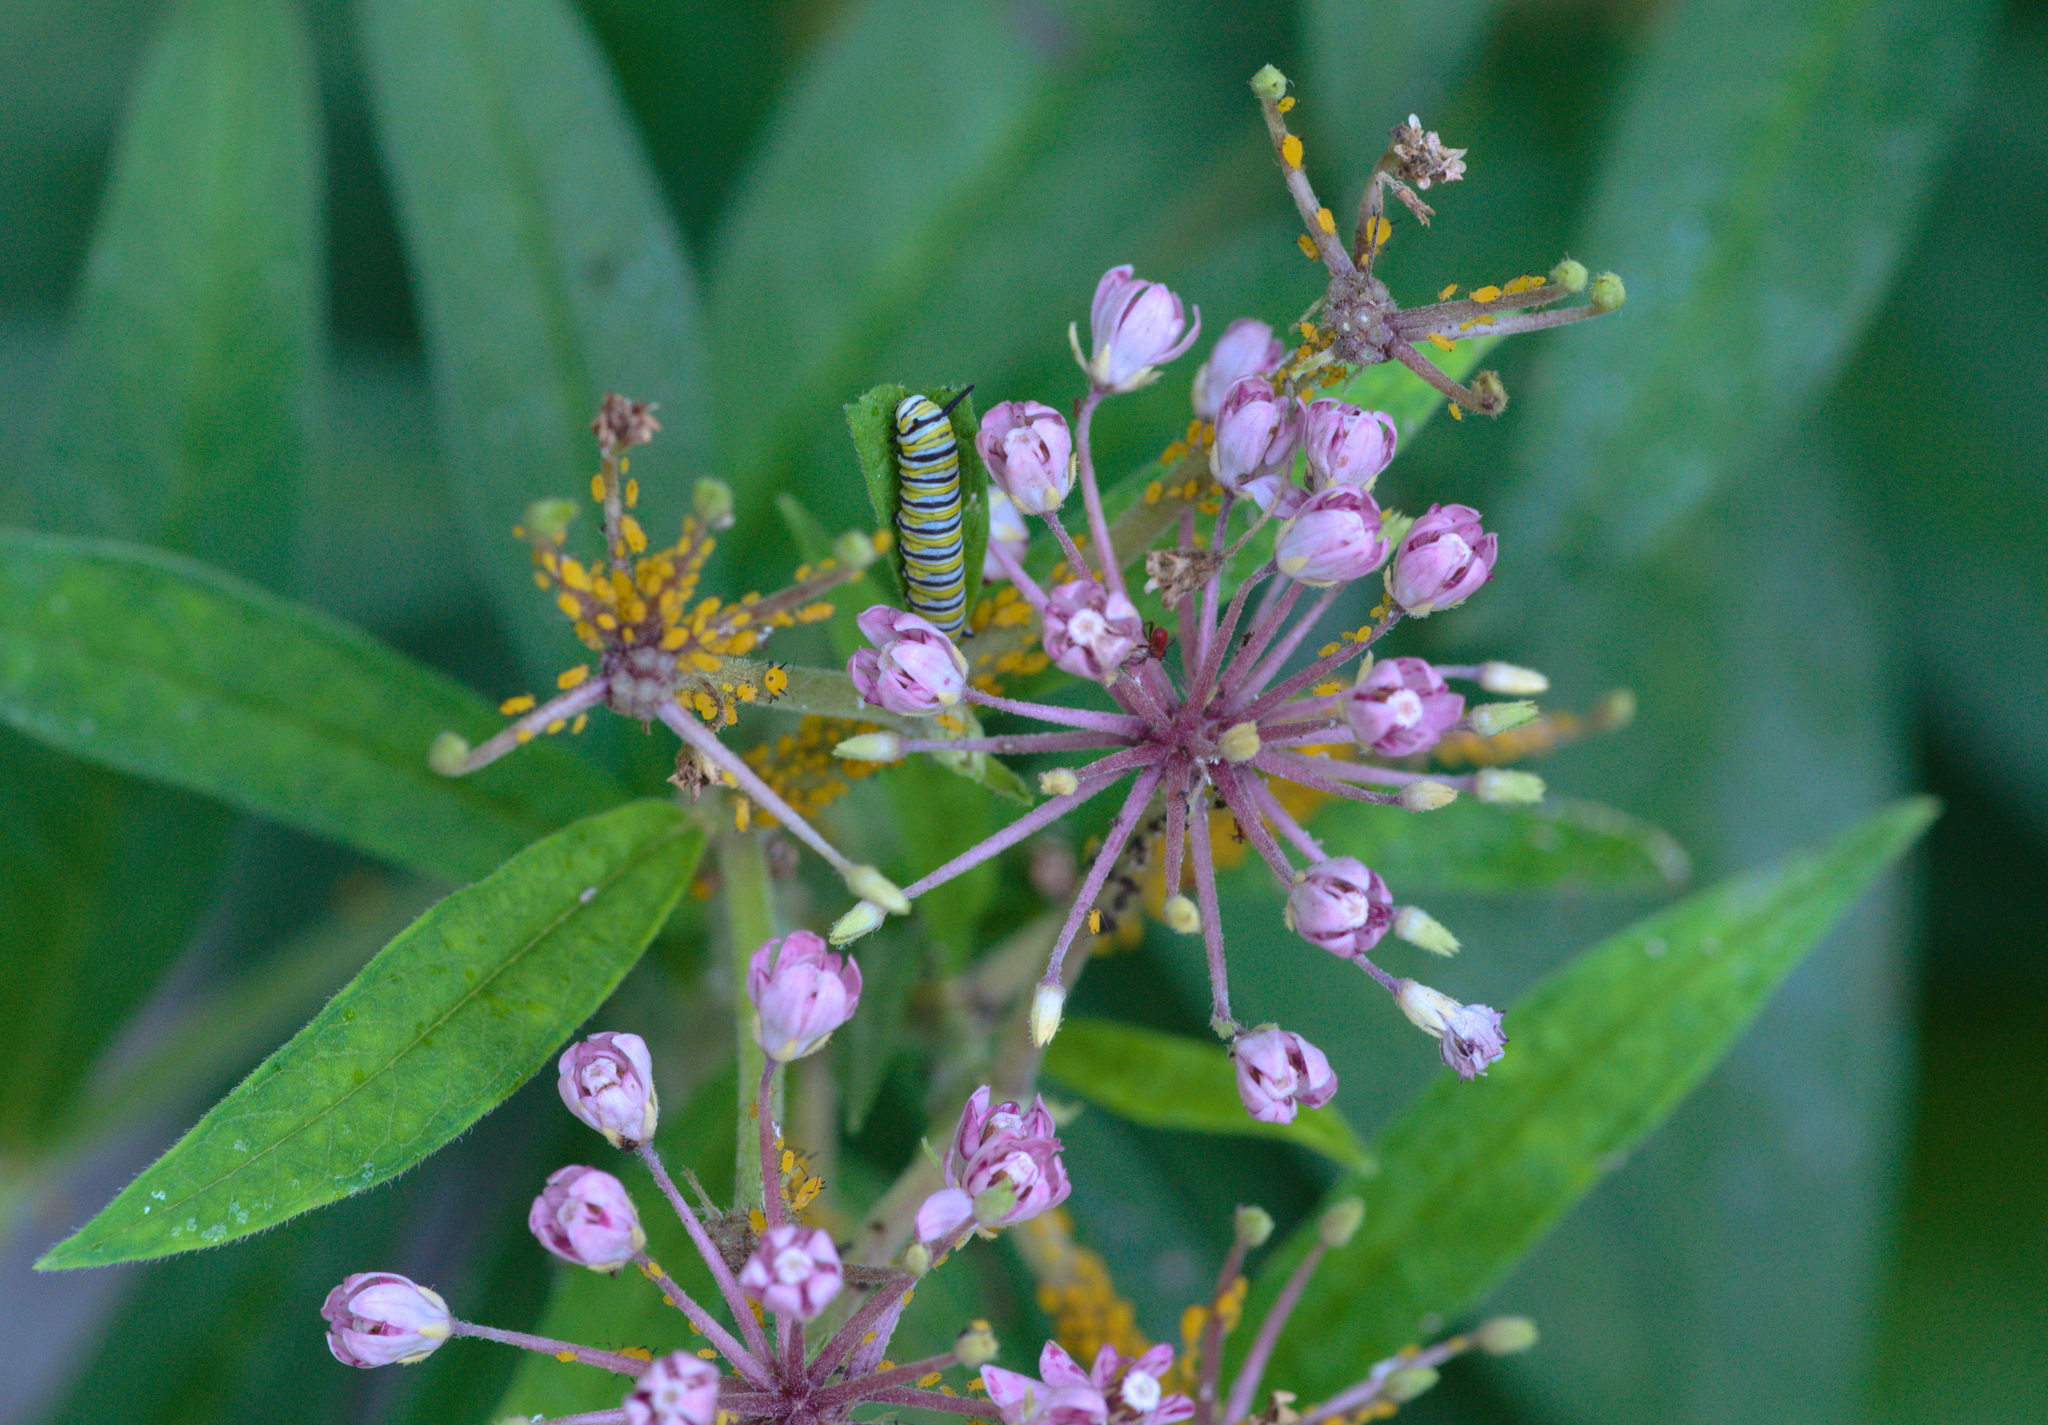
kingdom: Animalia
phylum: Arthropoda
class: Insecta
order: Lepidoptera
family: Nymphalidae
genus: Danaus
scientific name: Danaus plexippus
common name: Monarch
